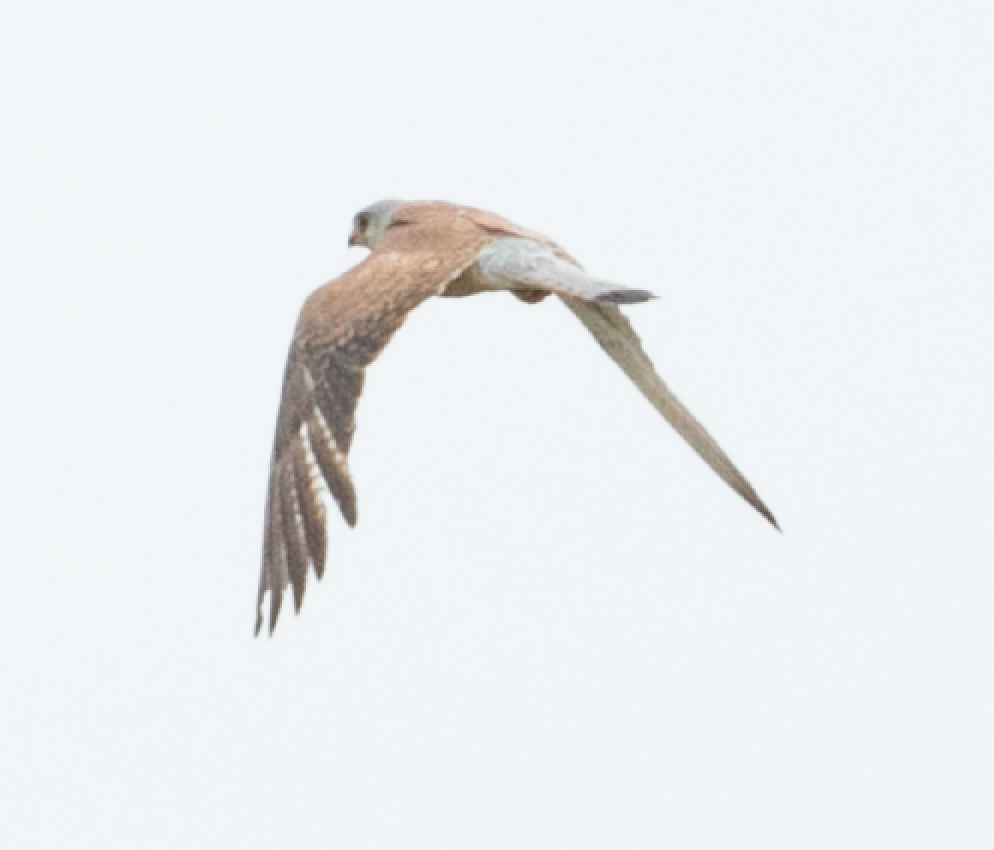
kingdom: Animalia
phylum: Chordata
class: Aves
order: Falconiformes
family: Falconidae
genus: Falco
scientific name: Falco tinnunculus
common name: Common kestrel
